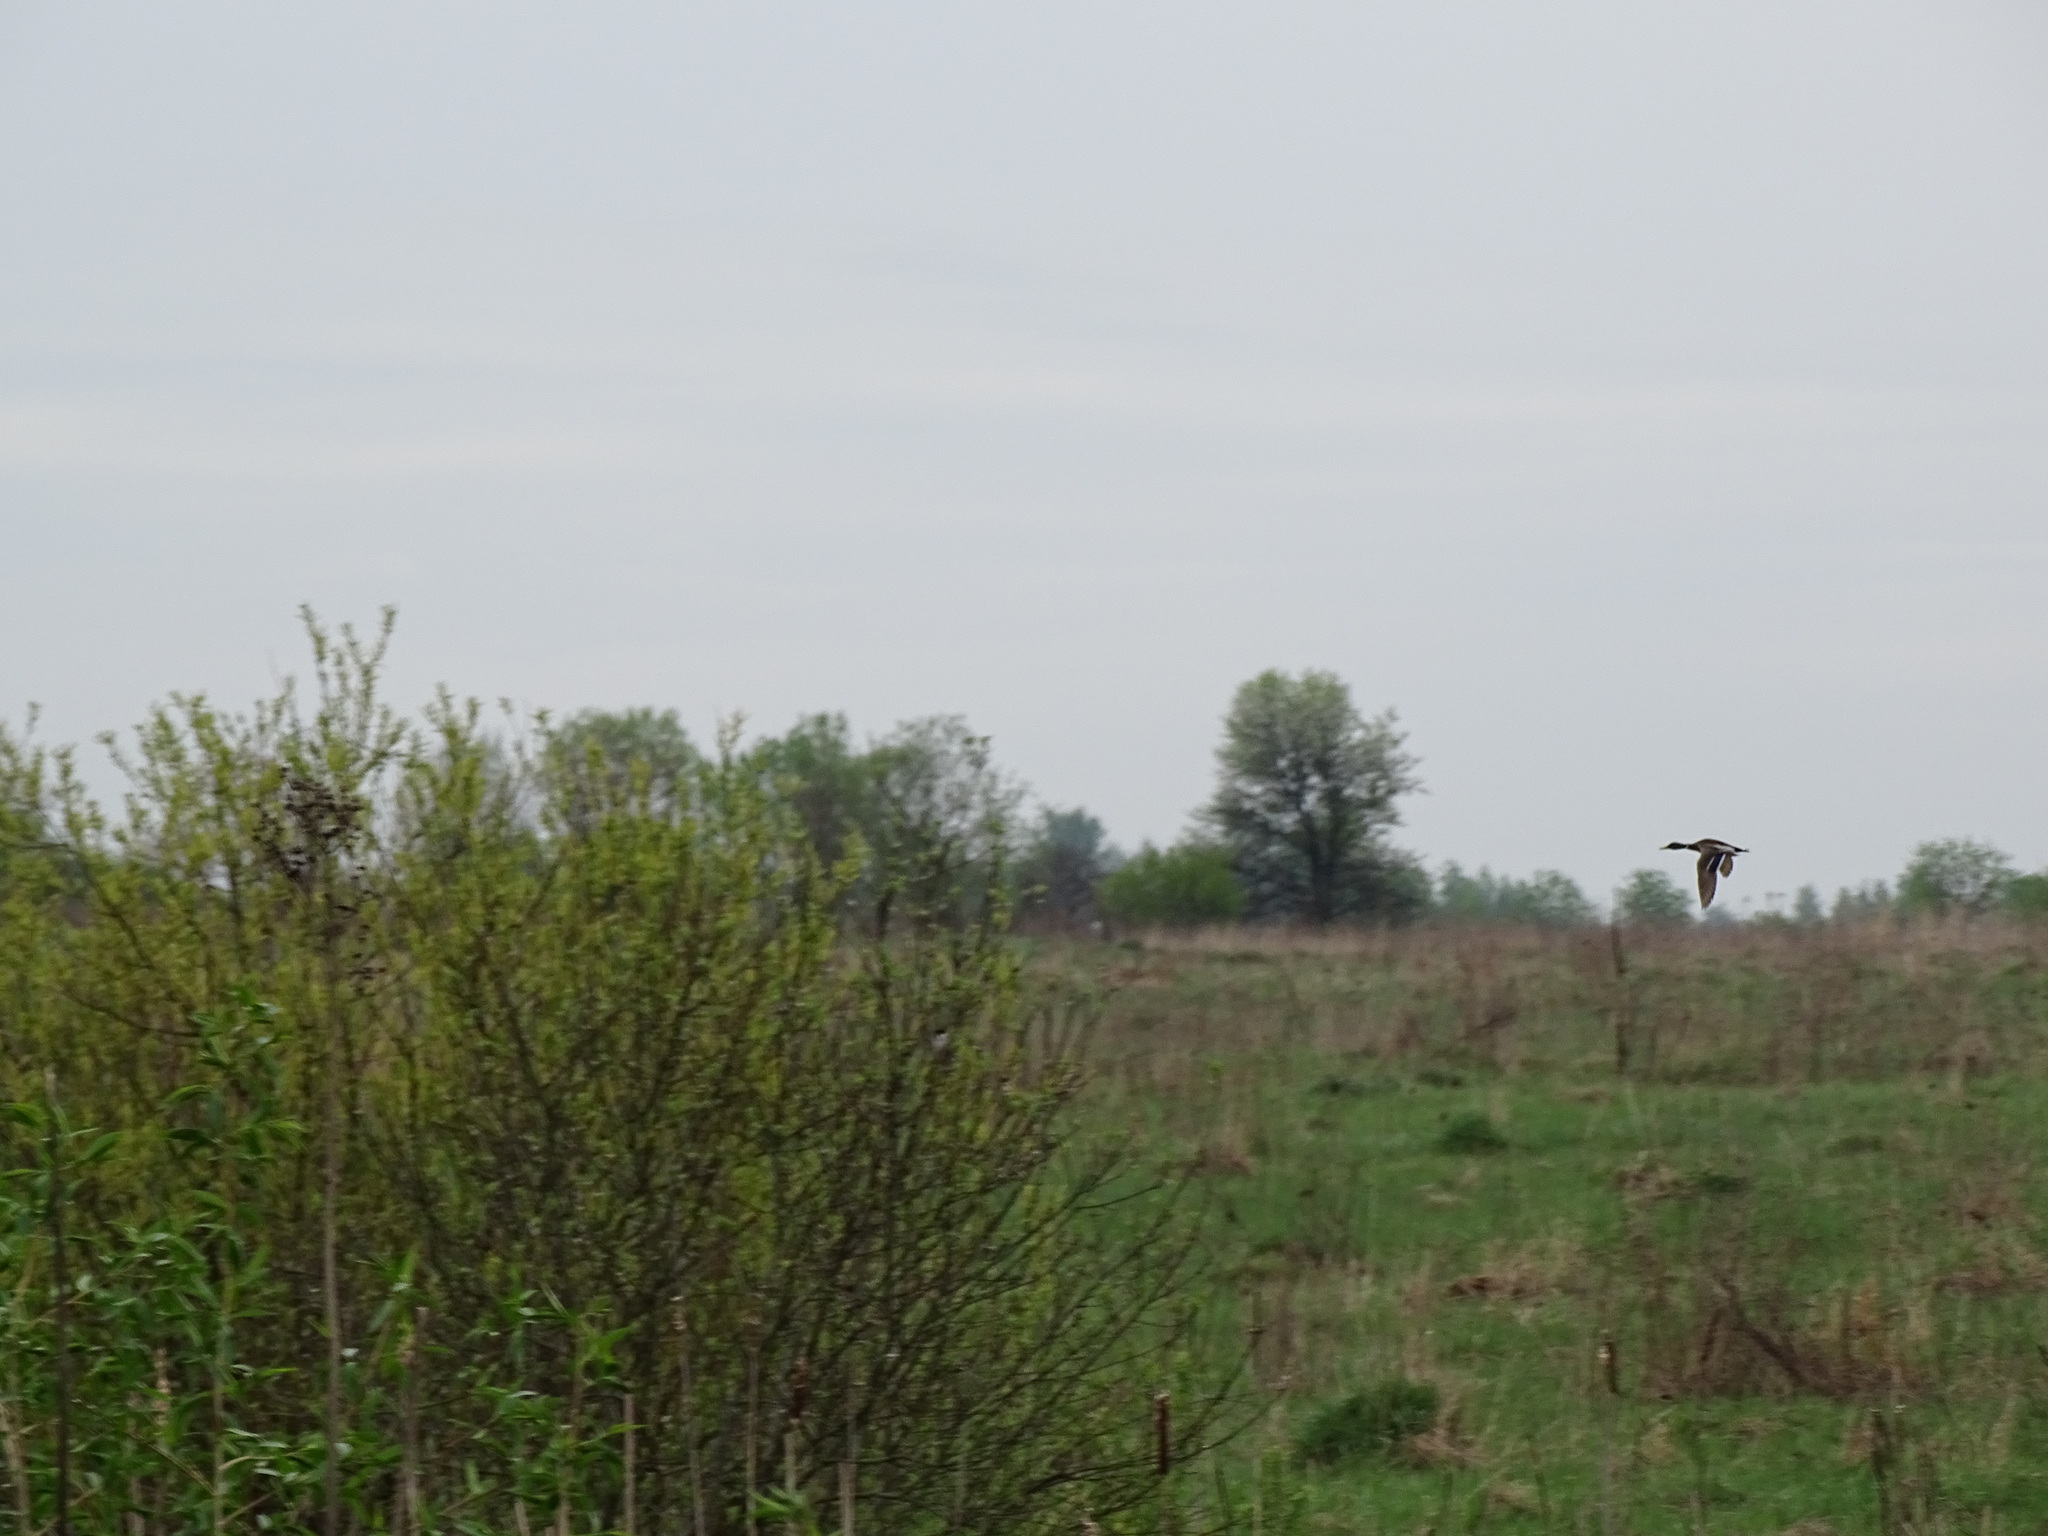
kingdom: Animalia
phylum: Chordata
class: Aves
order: Anseriformes
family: Anatidae
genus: Anas
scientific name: Anas platyrhynchos
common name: Mallard
